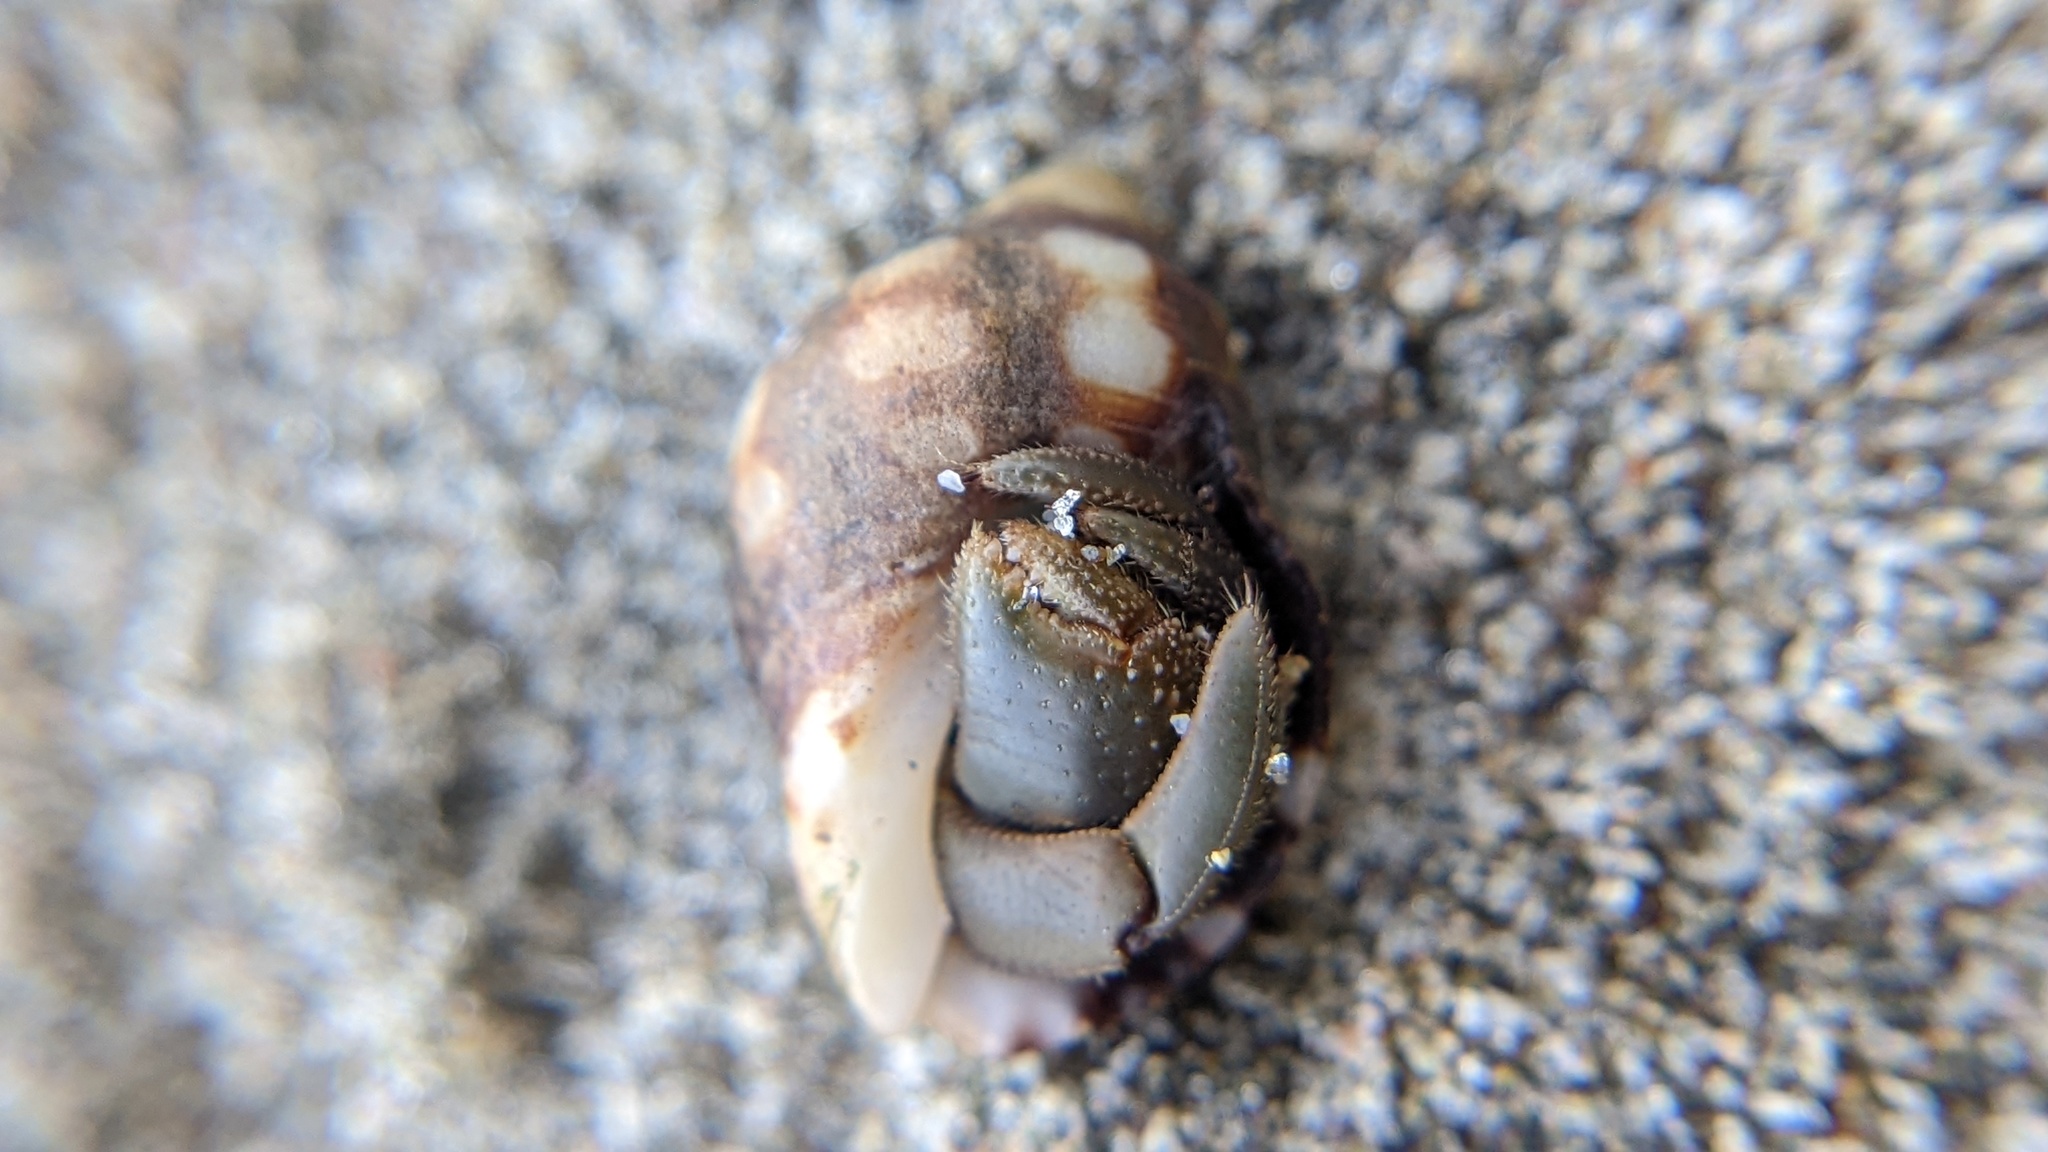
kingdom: Animalia
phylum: Mollusca
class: Gastropoda
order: Neogastropoda
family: Muricidae
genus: Acanthais
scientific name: Acanthais brevidentata
